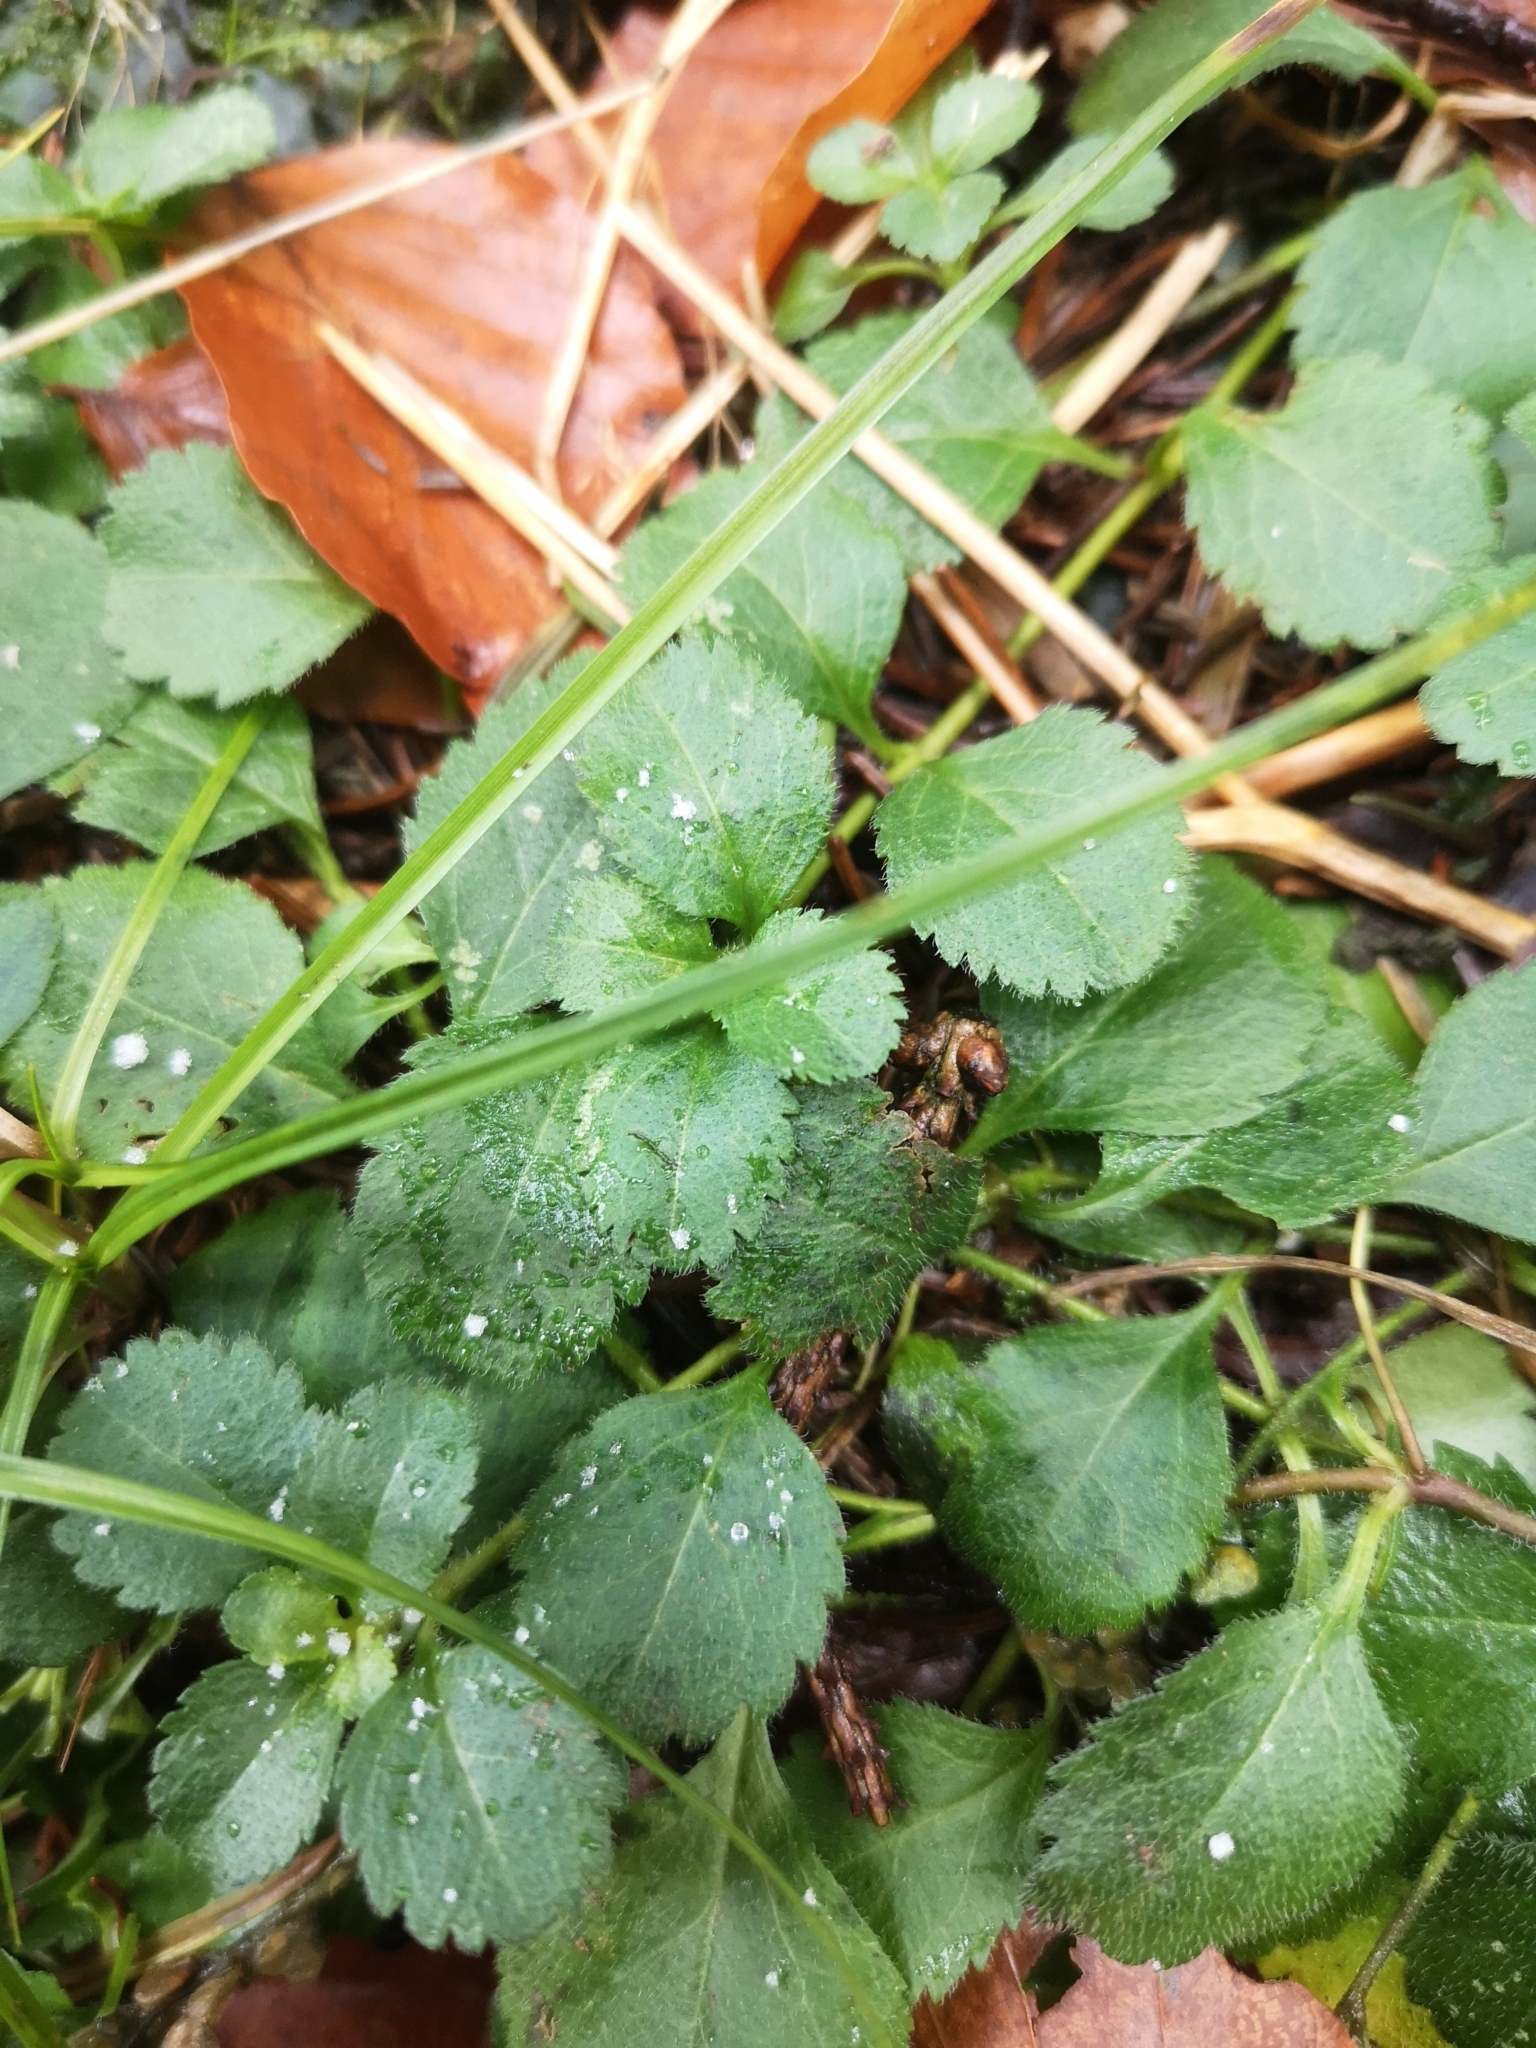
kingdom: Plantae
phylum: Tracheophyta
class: Magnoliopsida
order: Lamiales
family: Plantaginaceae
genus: Veronica
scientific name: Veronica officinalis
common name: Common speedwell
